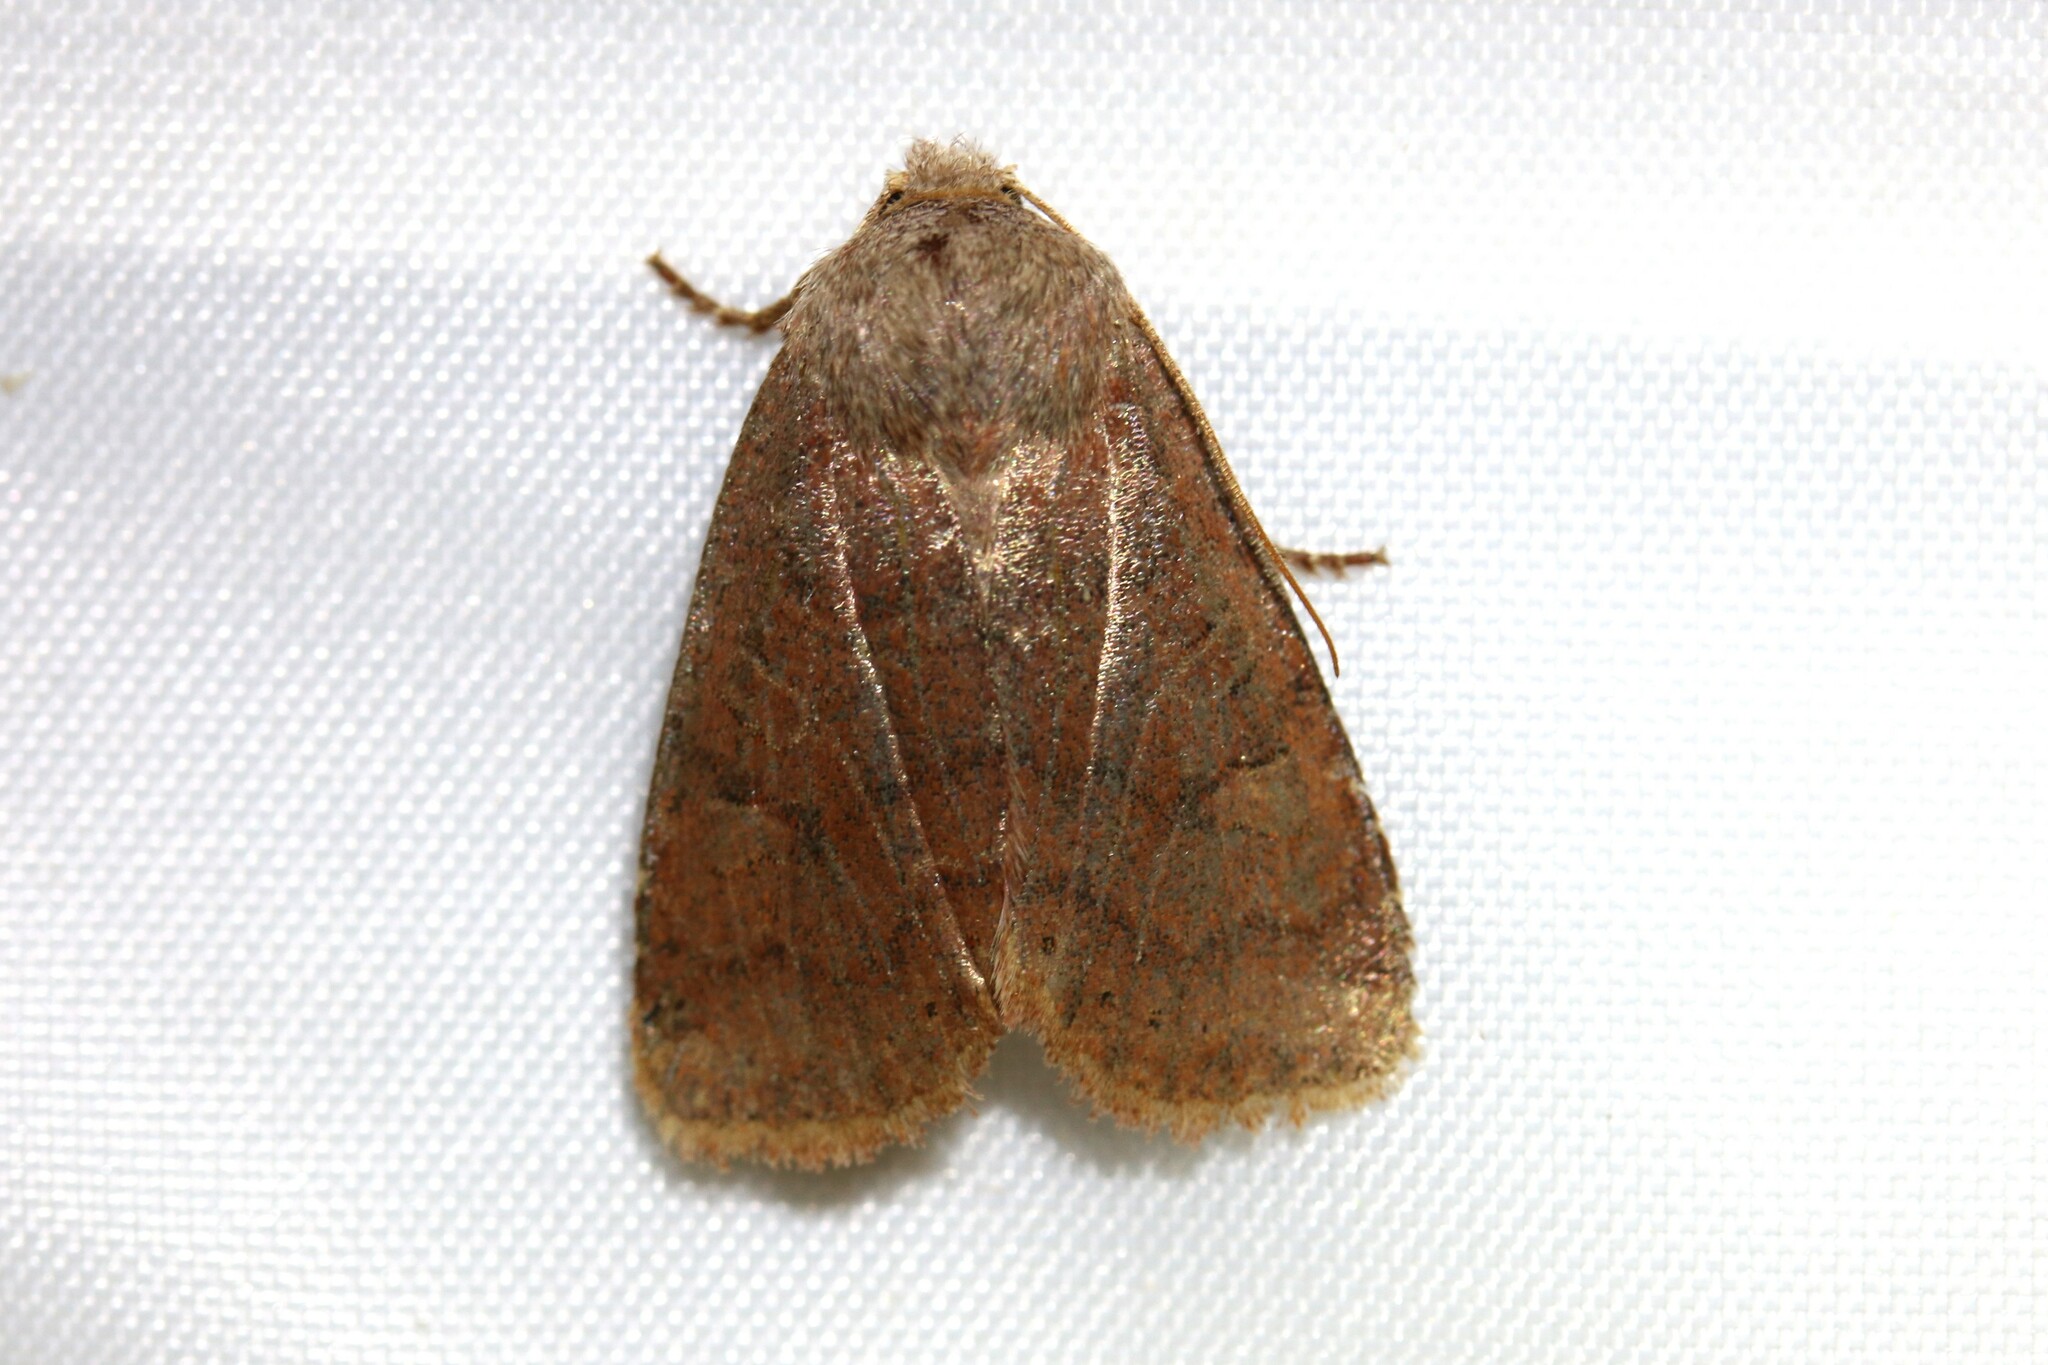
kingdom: Animalia
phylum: Arthropoda
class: Insecta
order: Lepidoptera
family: Noctuidae
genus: Conistra
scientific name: Conistra vaccinii
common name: Chestnut
